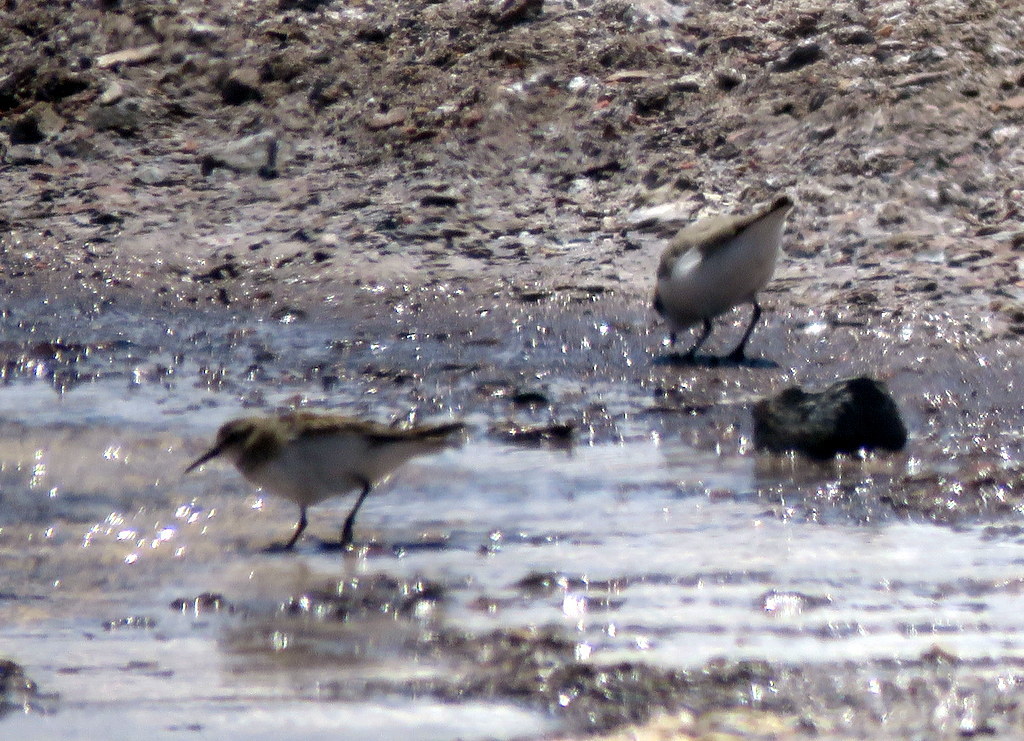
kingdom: Animalia
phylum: Chordata
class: Aves
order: Charadriiformes
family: Scolopacidae
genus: Calidris
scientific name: Calidris bairdii
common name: Baird's sandpiper
